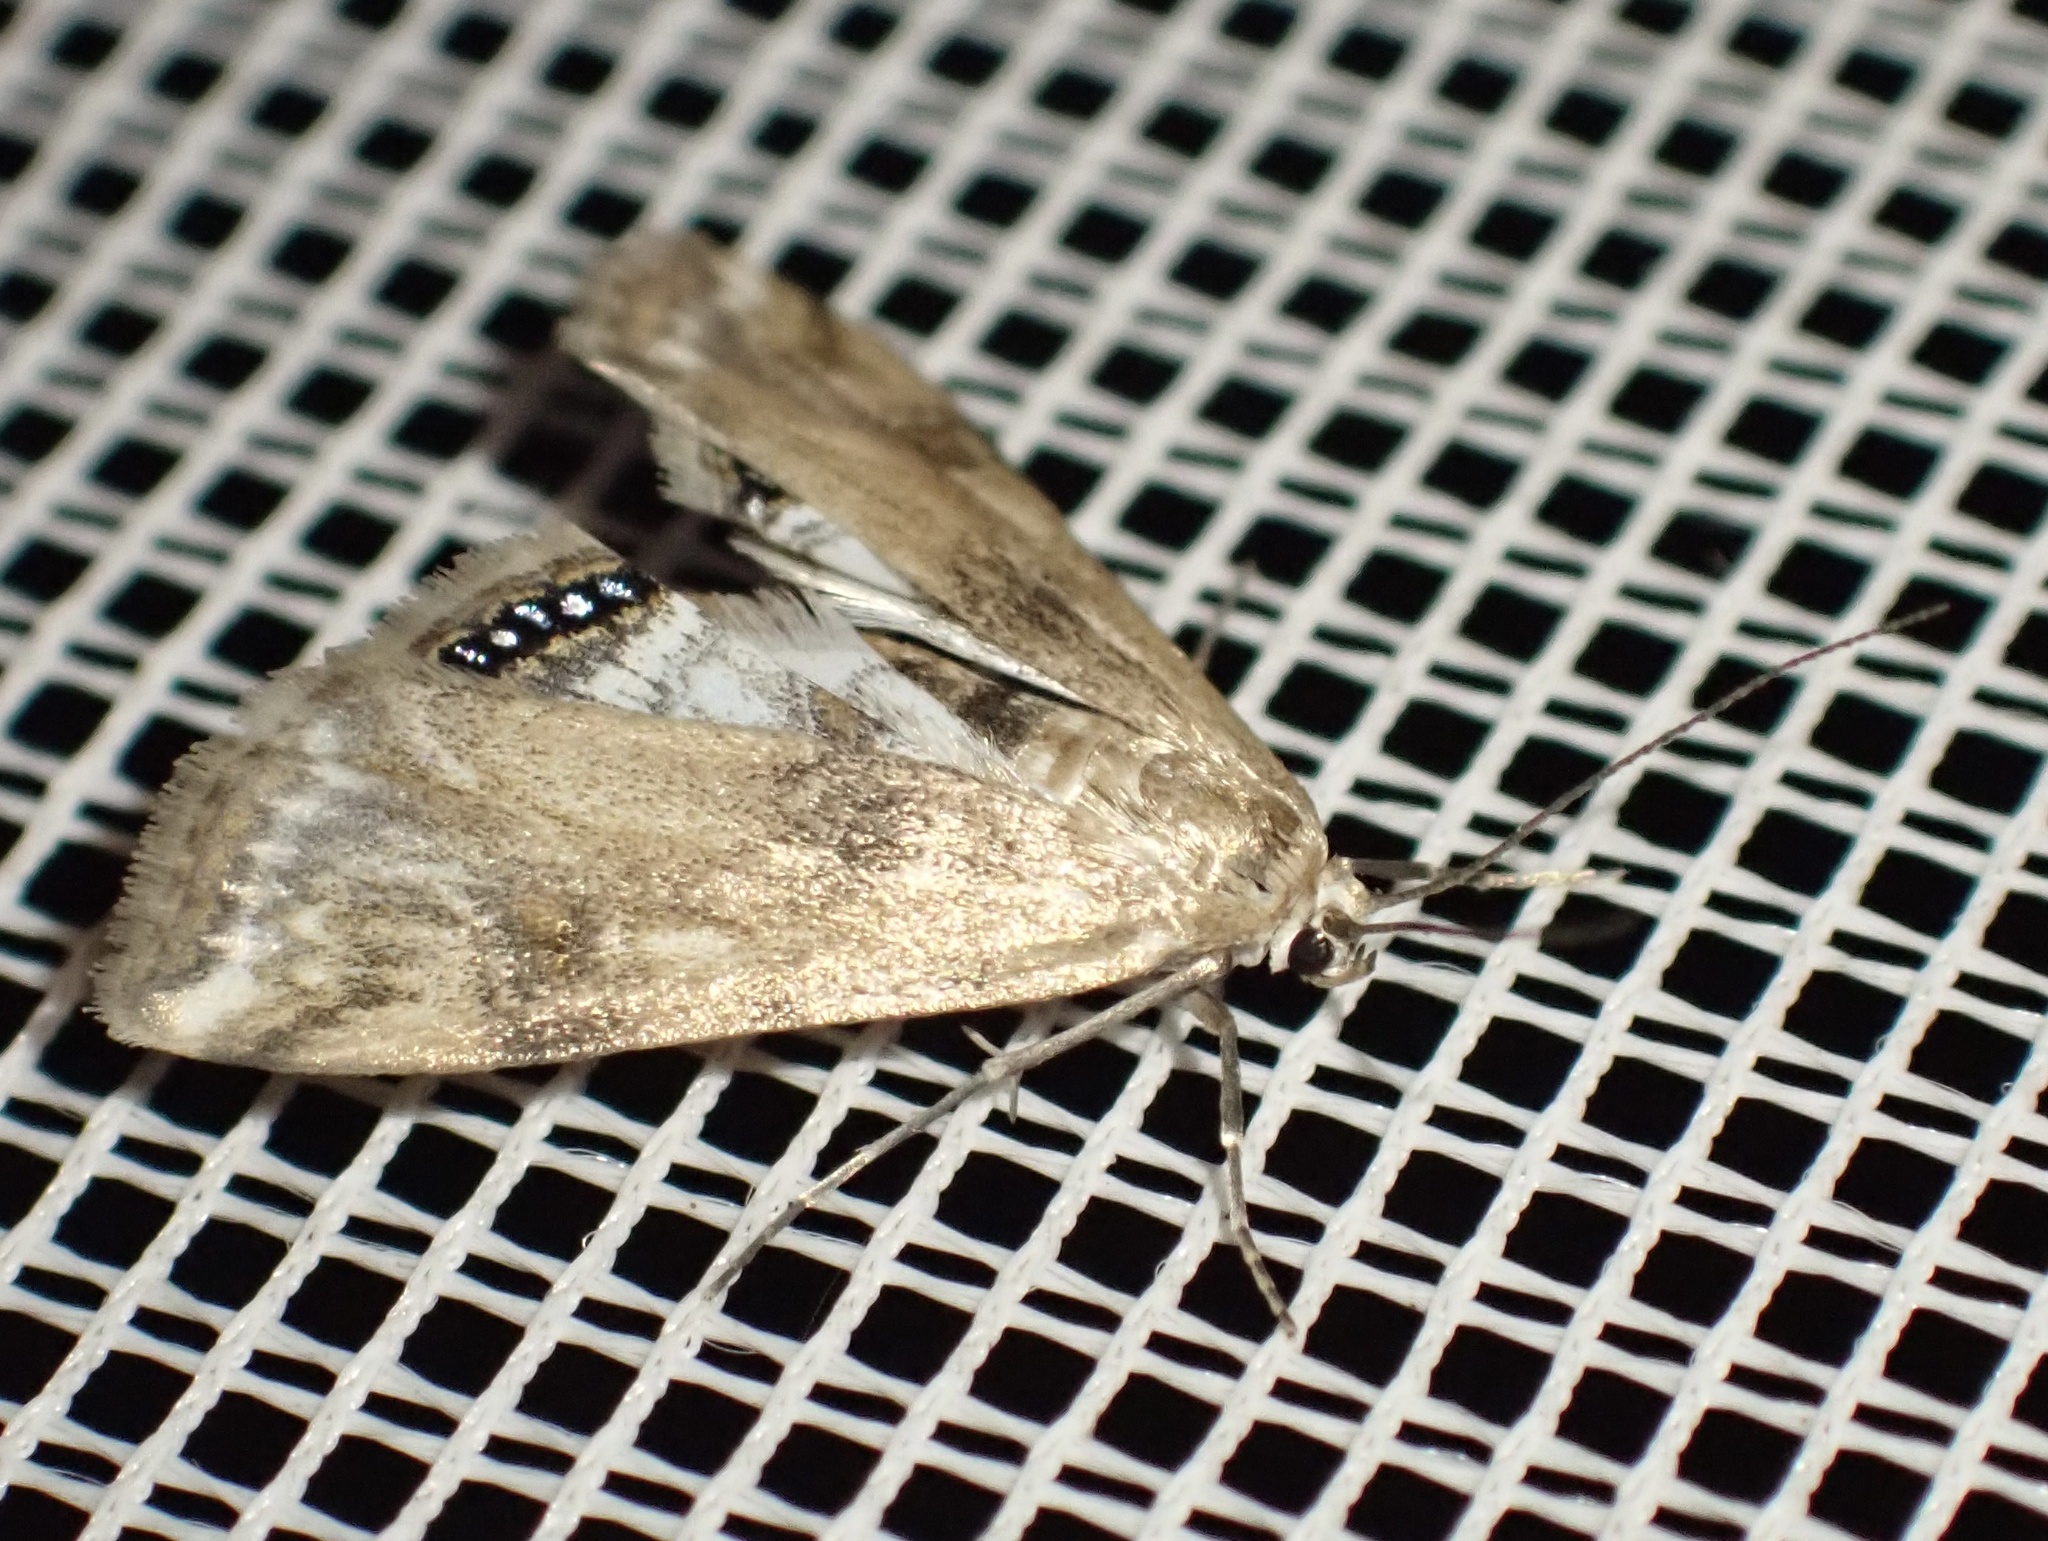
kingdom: Animalia
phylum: Arthropoda
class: Insecta
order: Lepidoptera
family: Crambidae
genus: Cataclysta
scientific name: Cataclysta lemnata
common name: Small china-mark
